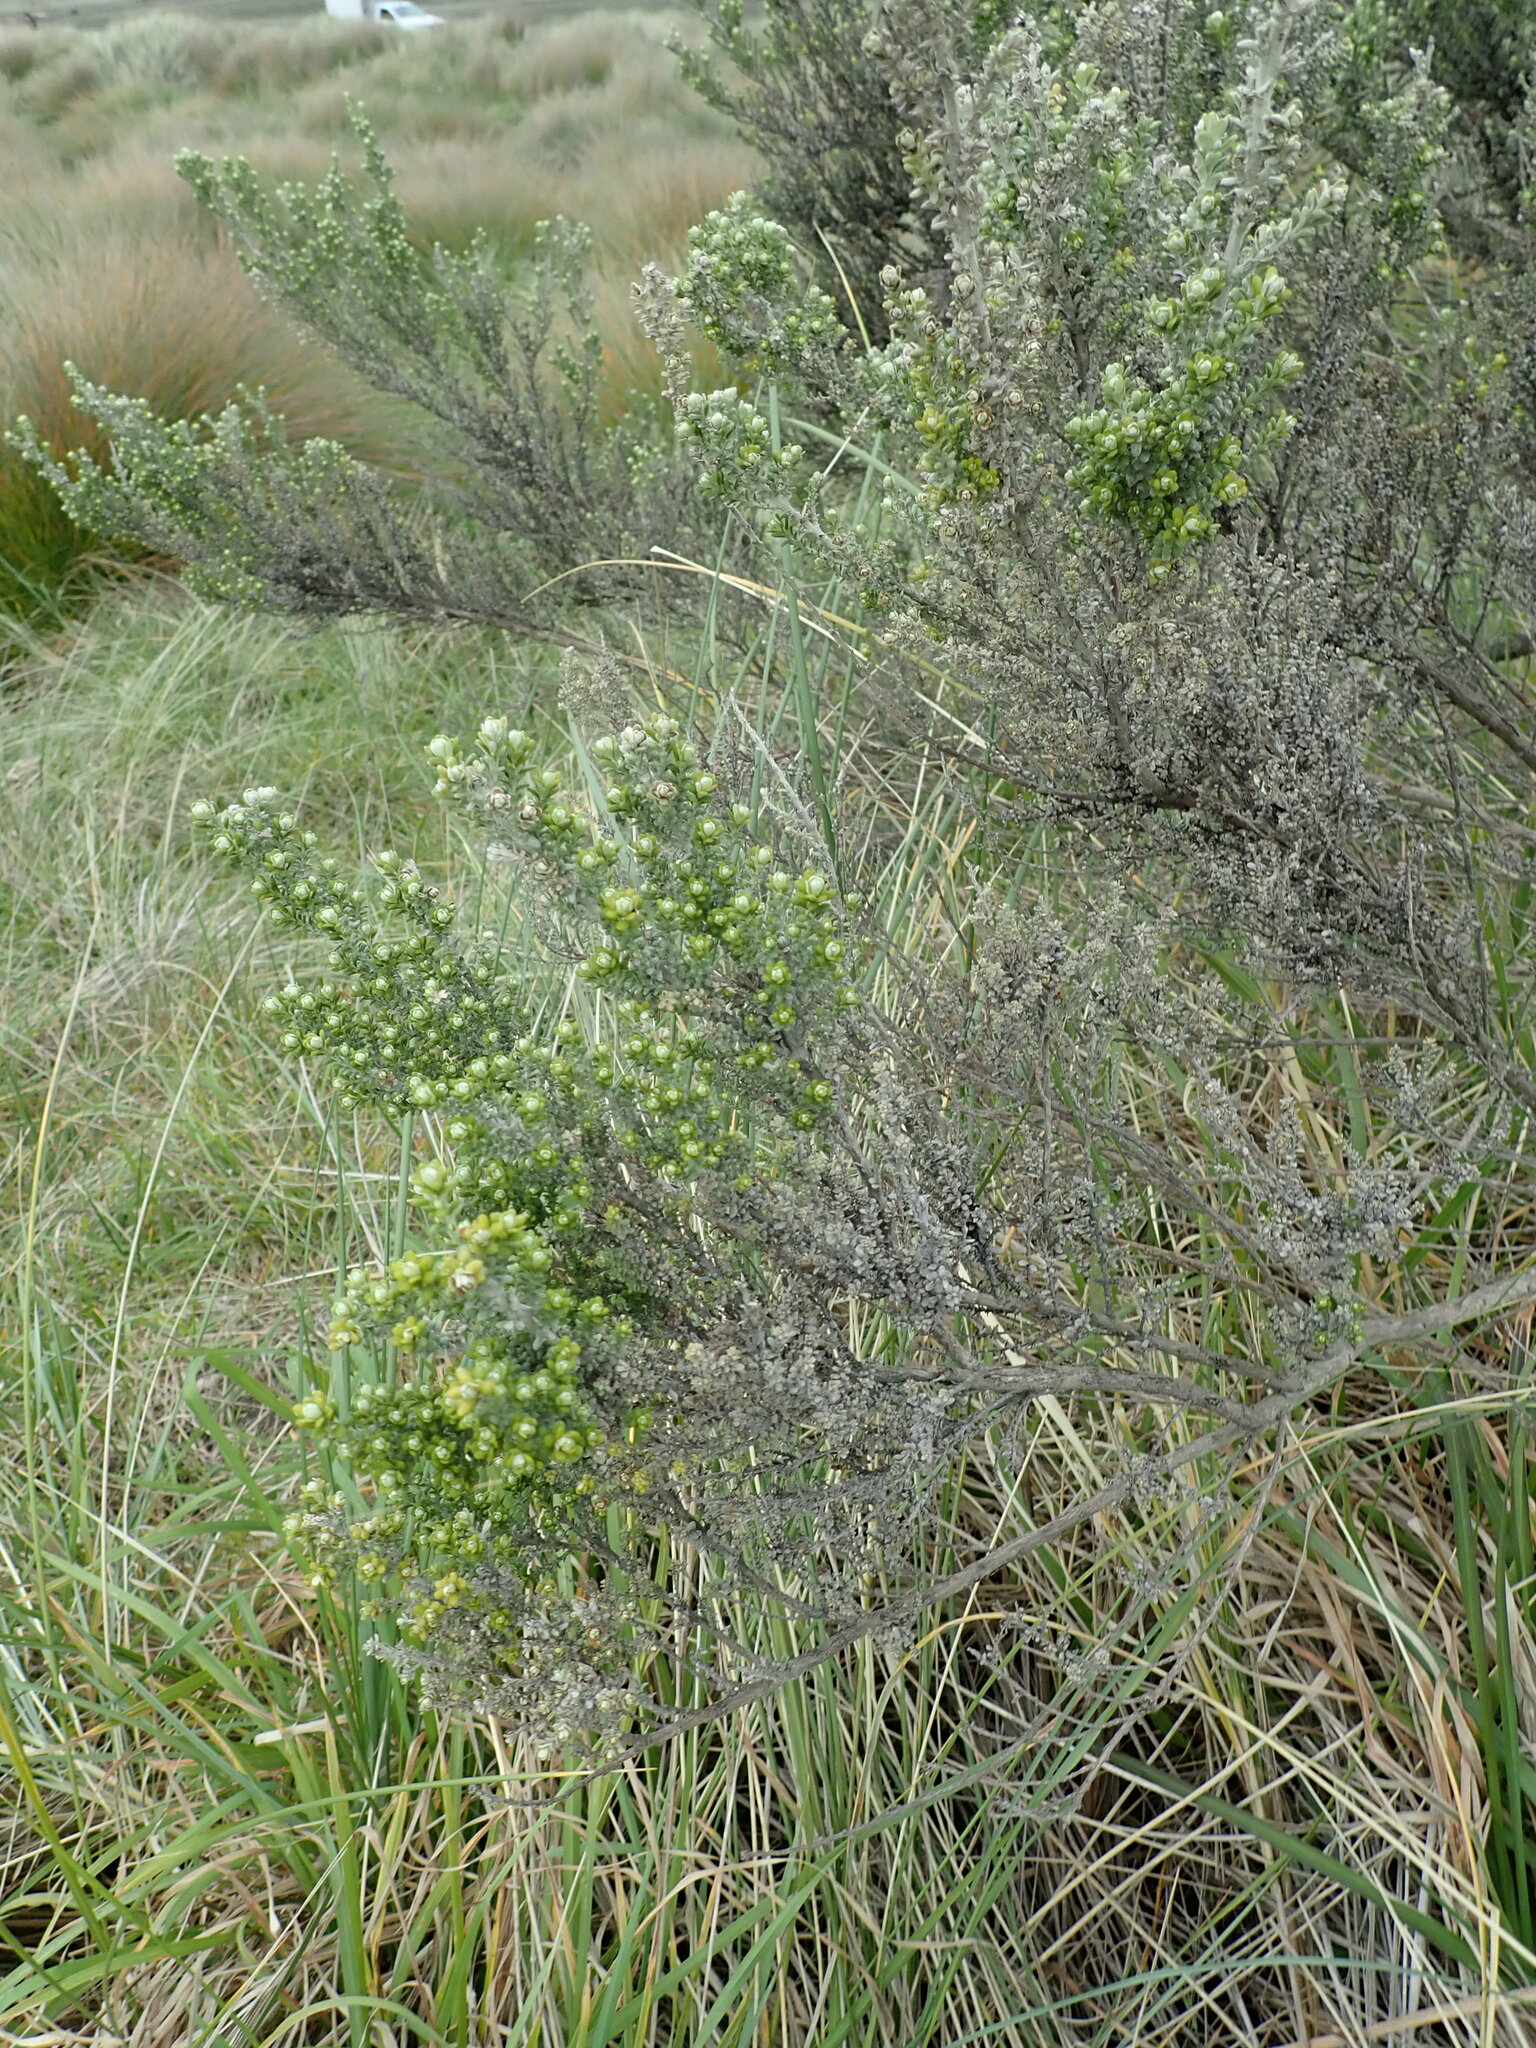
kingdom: Plantae
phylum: Tracheophyta
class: Magnoliopsida
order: Asterales
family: Asteraceae
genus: Ozothamnus
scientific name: Ozothamnus leptophyllus
